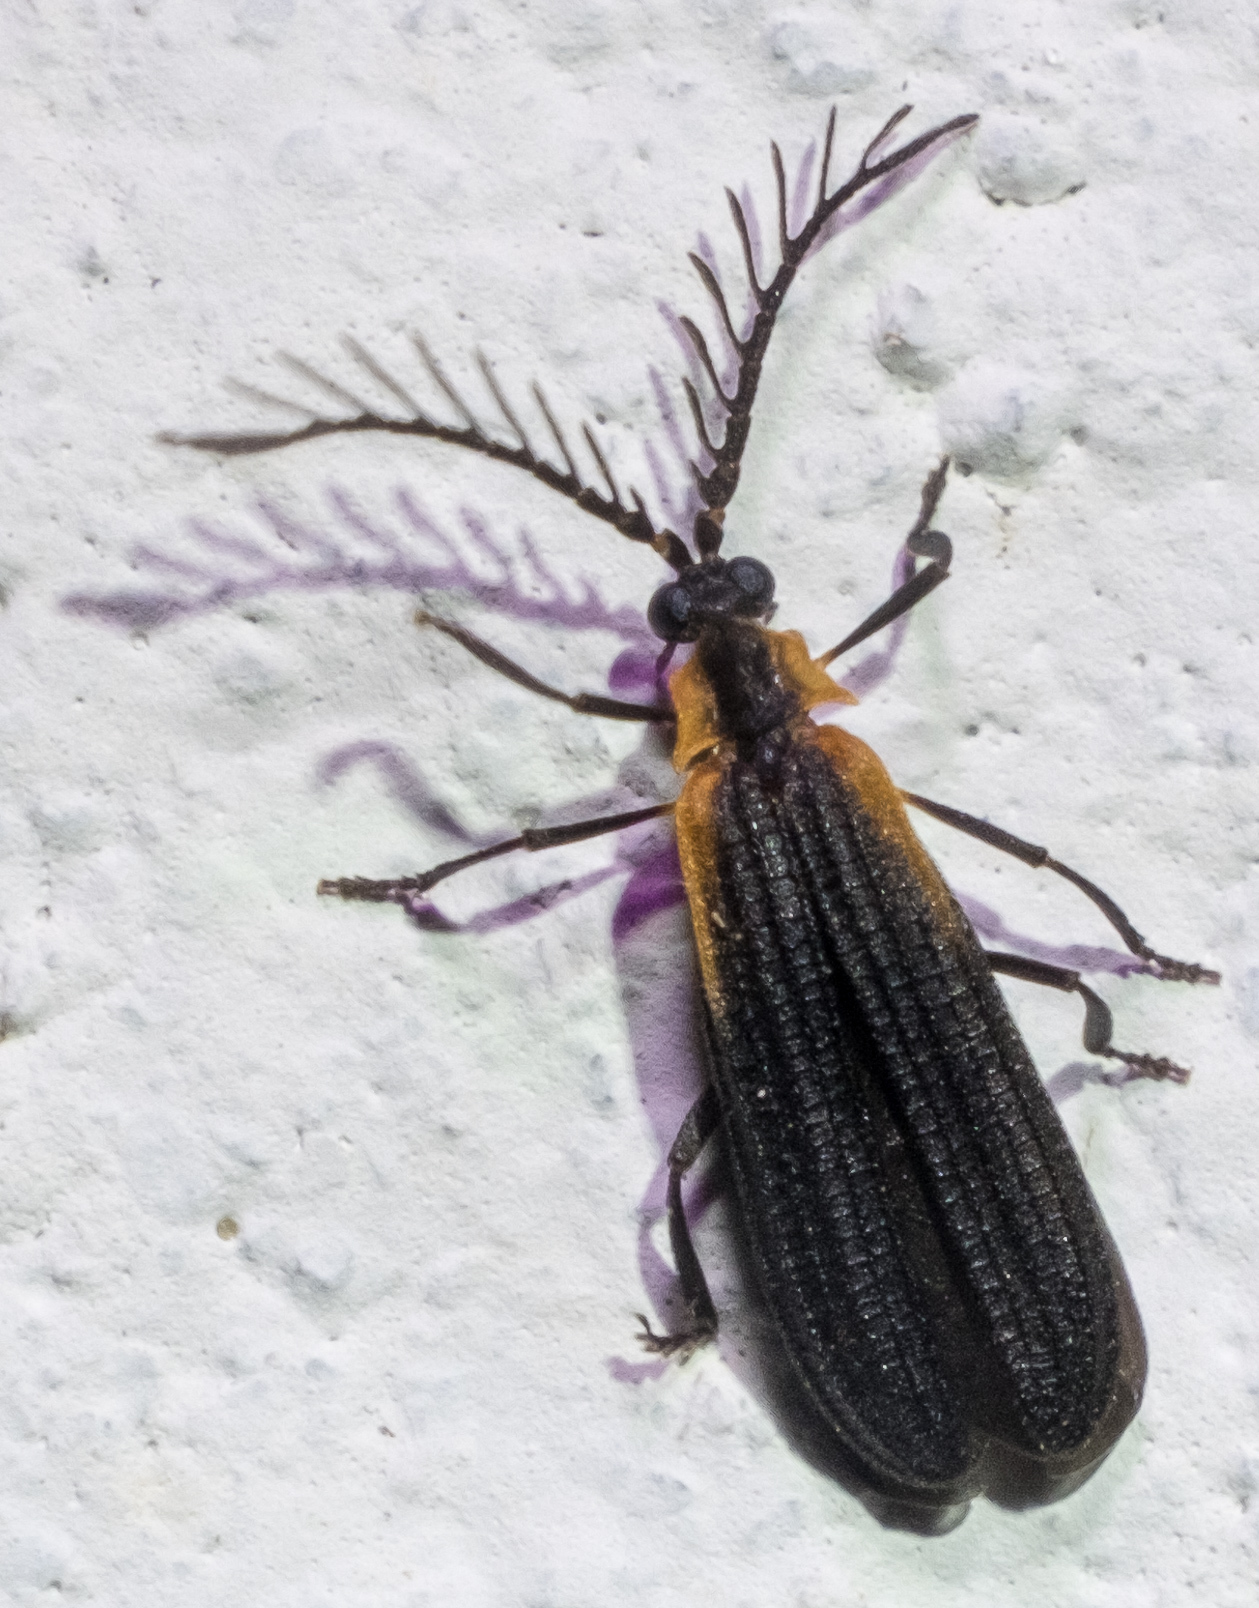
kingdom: Animalia
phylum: Arthropoda
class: Insecta
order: Coleoptera
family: Lycidae
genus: Leptoceletes
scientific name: Leptoceletes basalis
